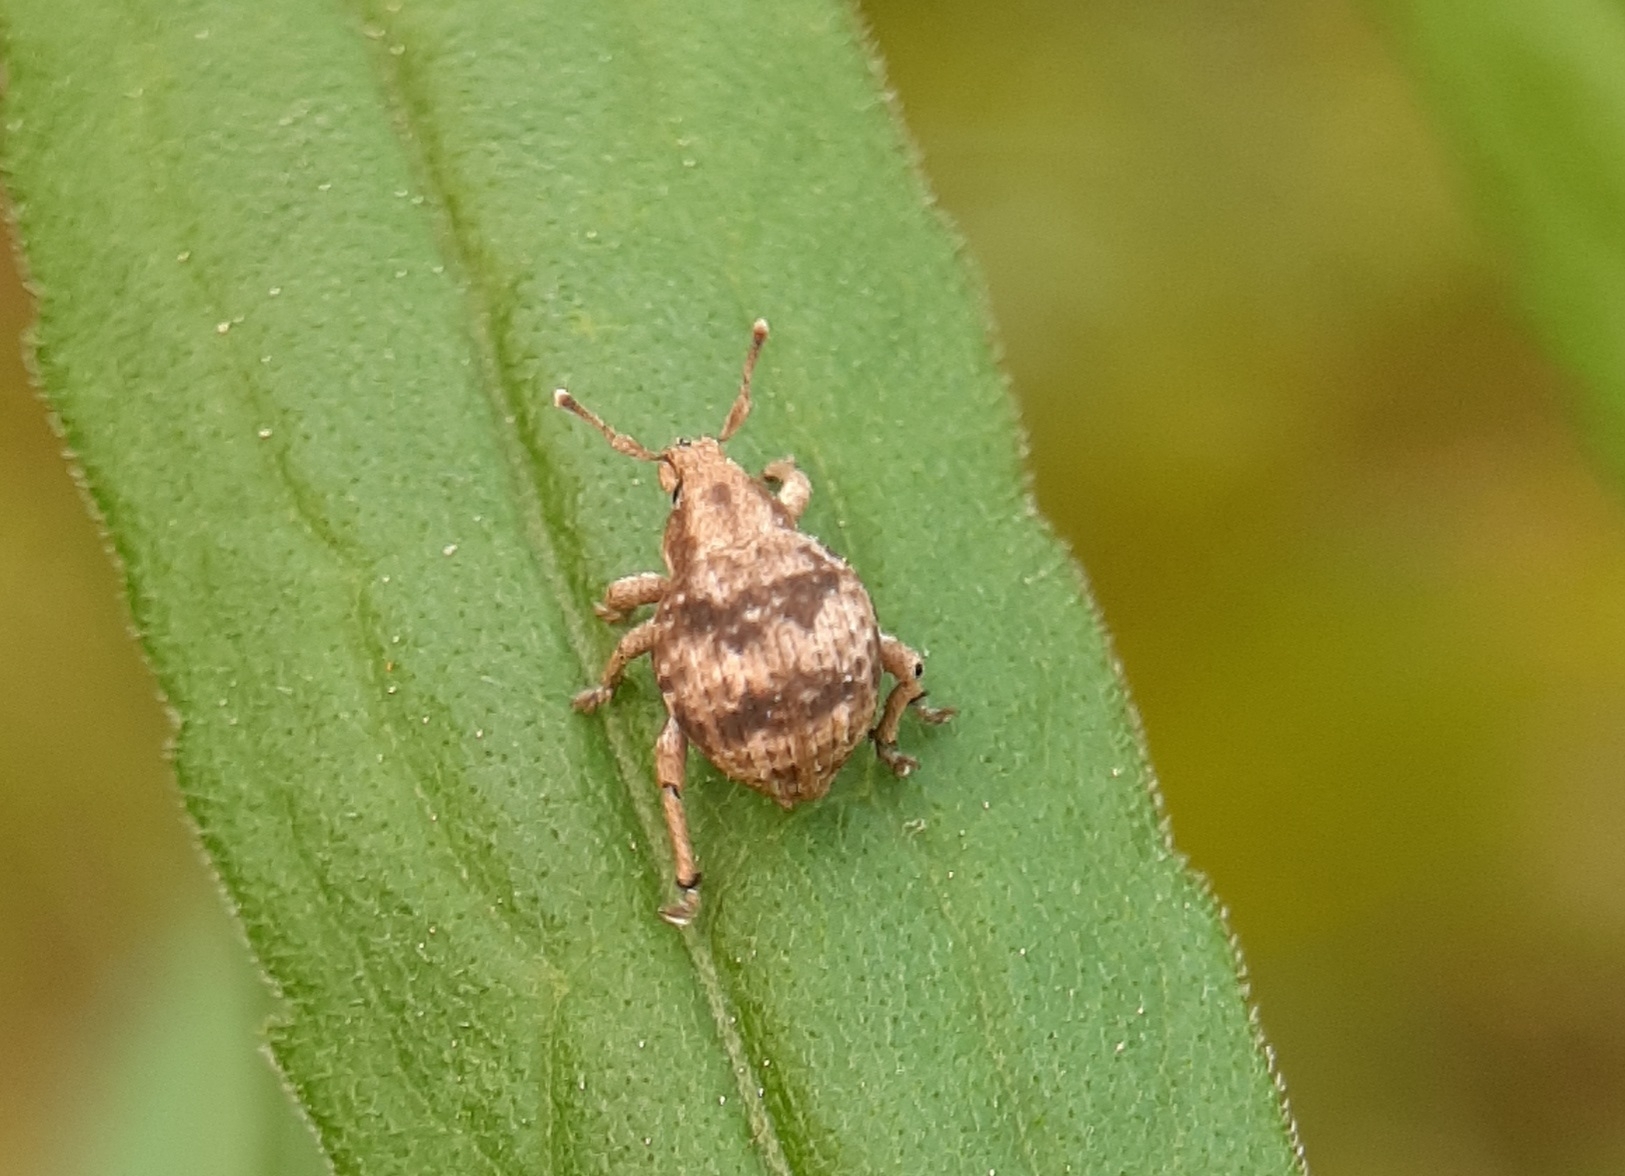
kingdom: Animalia
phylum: Arthropoda
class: Insecta
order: Coleoptera
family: Curculionidae
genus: Pseudocneorhinus
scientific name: Pseudocneorhinus bifasciatus
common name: Two-banded japanese weevil
